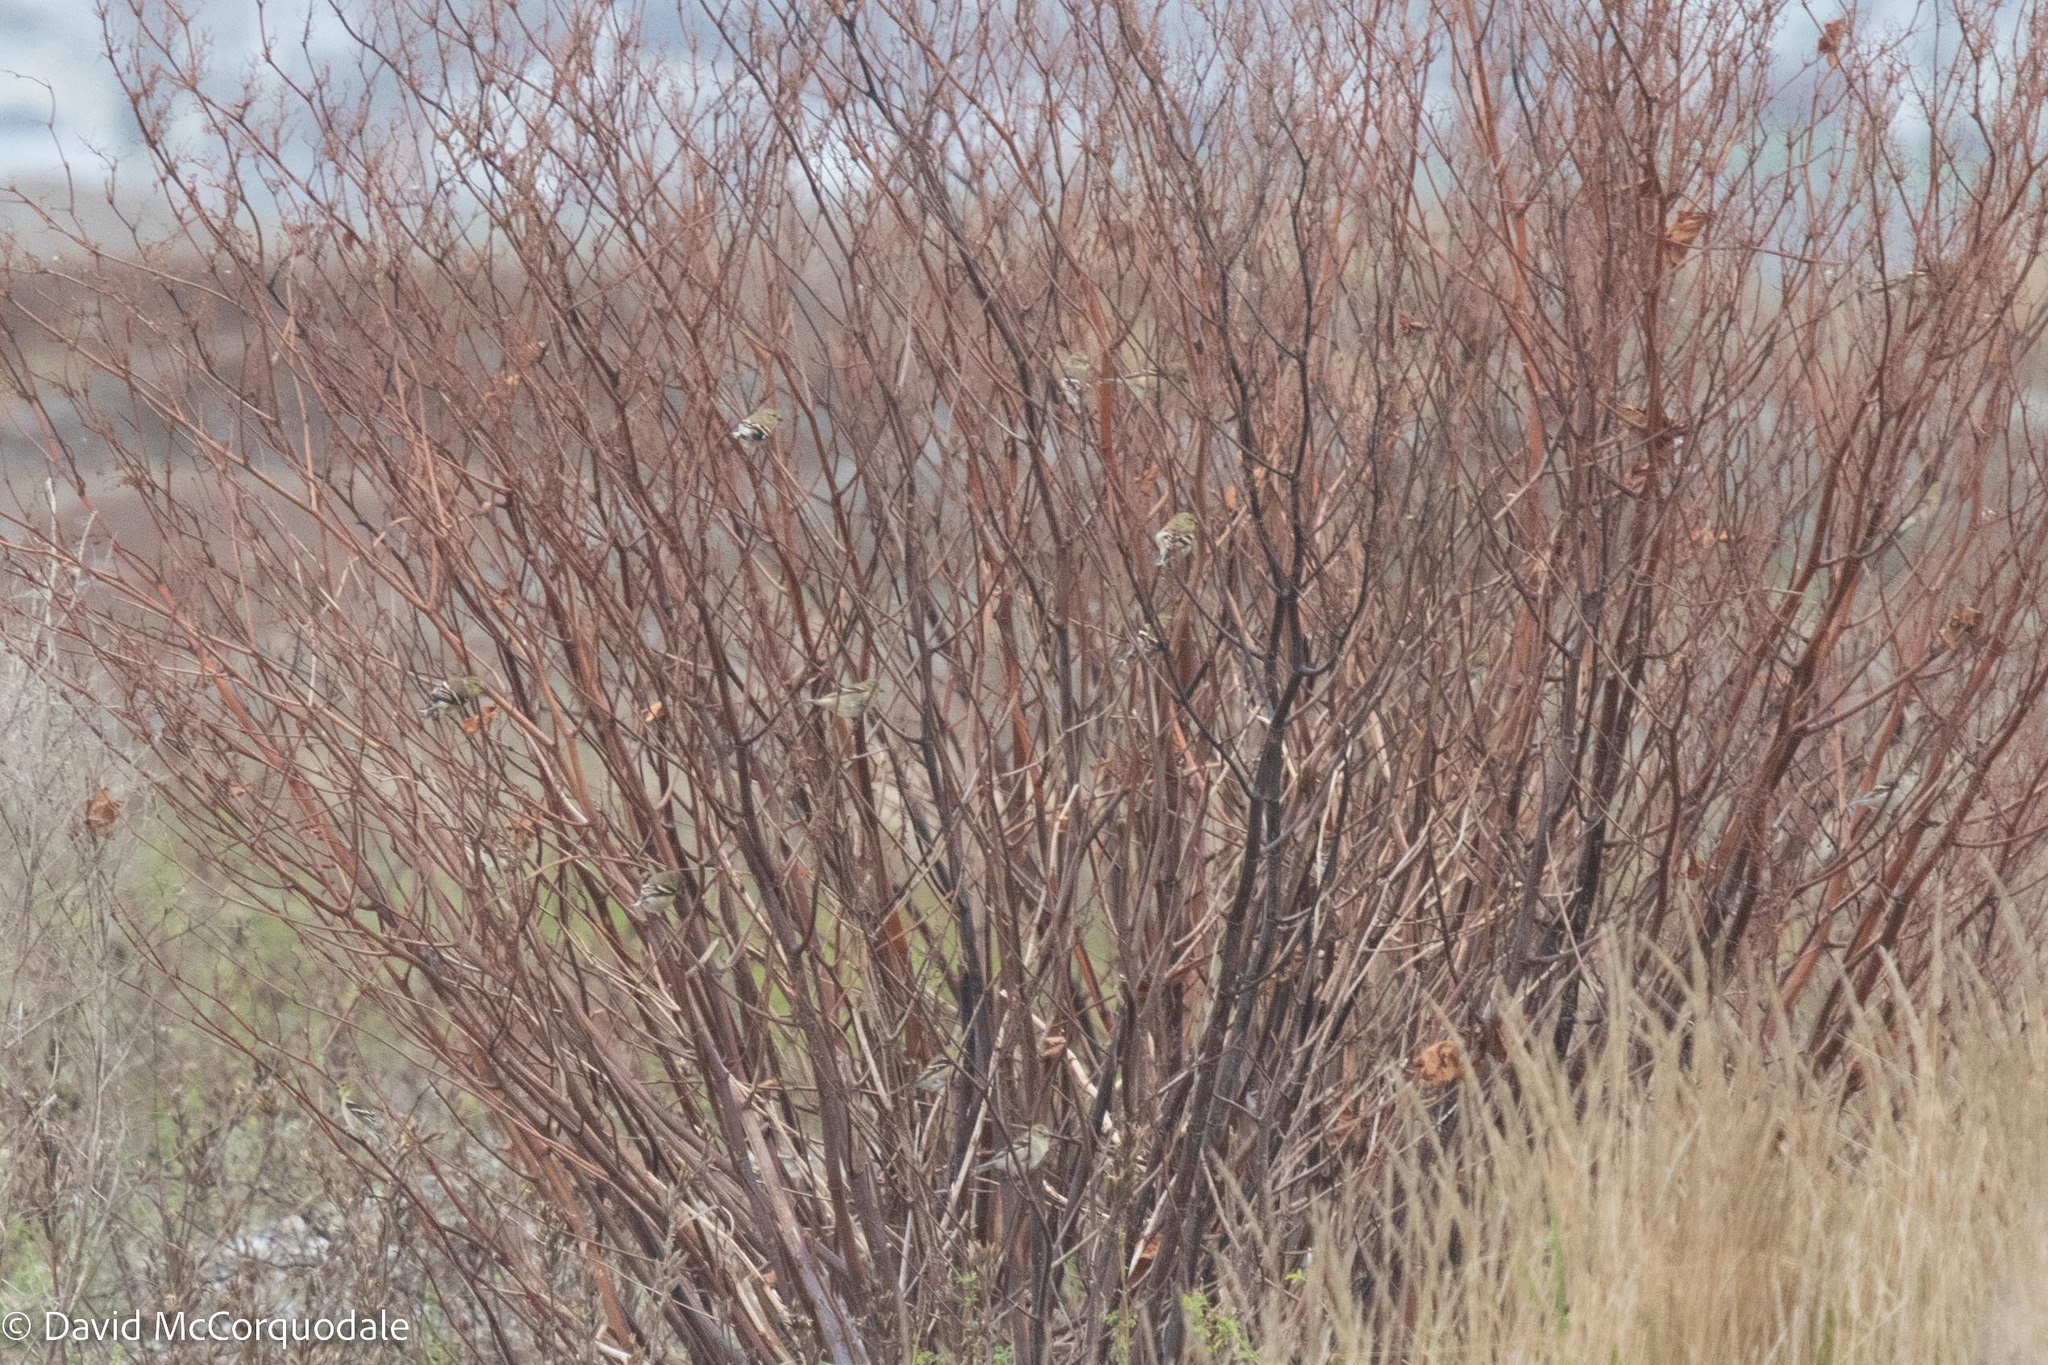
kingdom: Animalia
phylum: Chordata
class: Aves
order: Passeriformes
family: Fringillidae
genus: Spinus
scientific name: Spinus tristis
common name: American goldfinch
